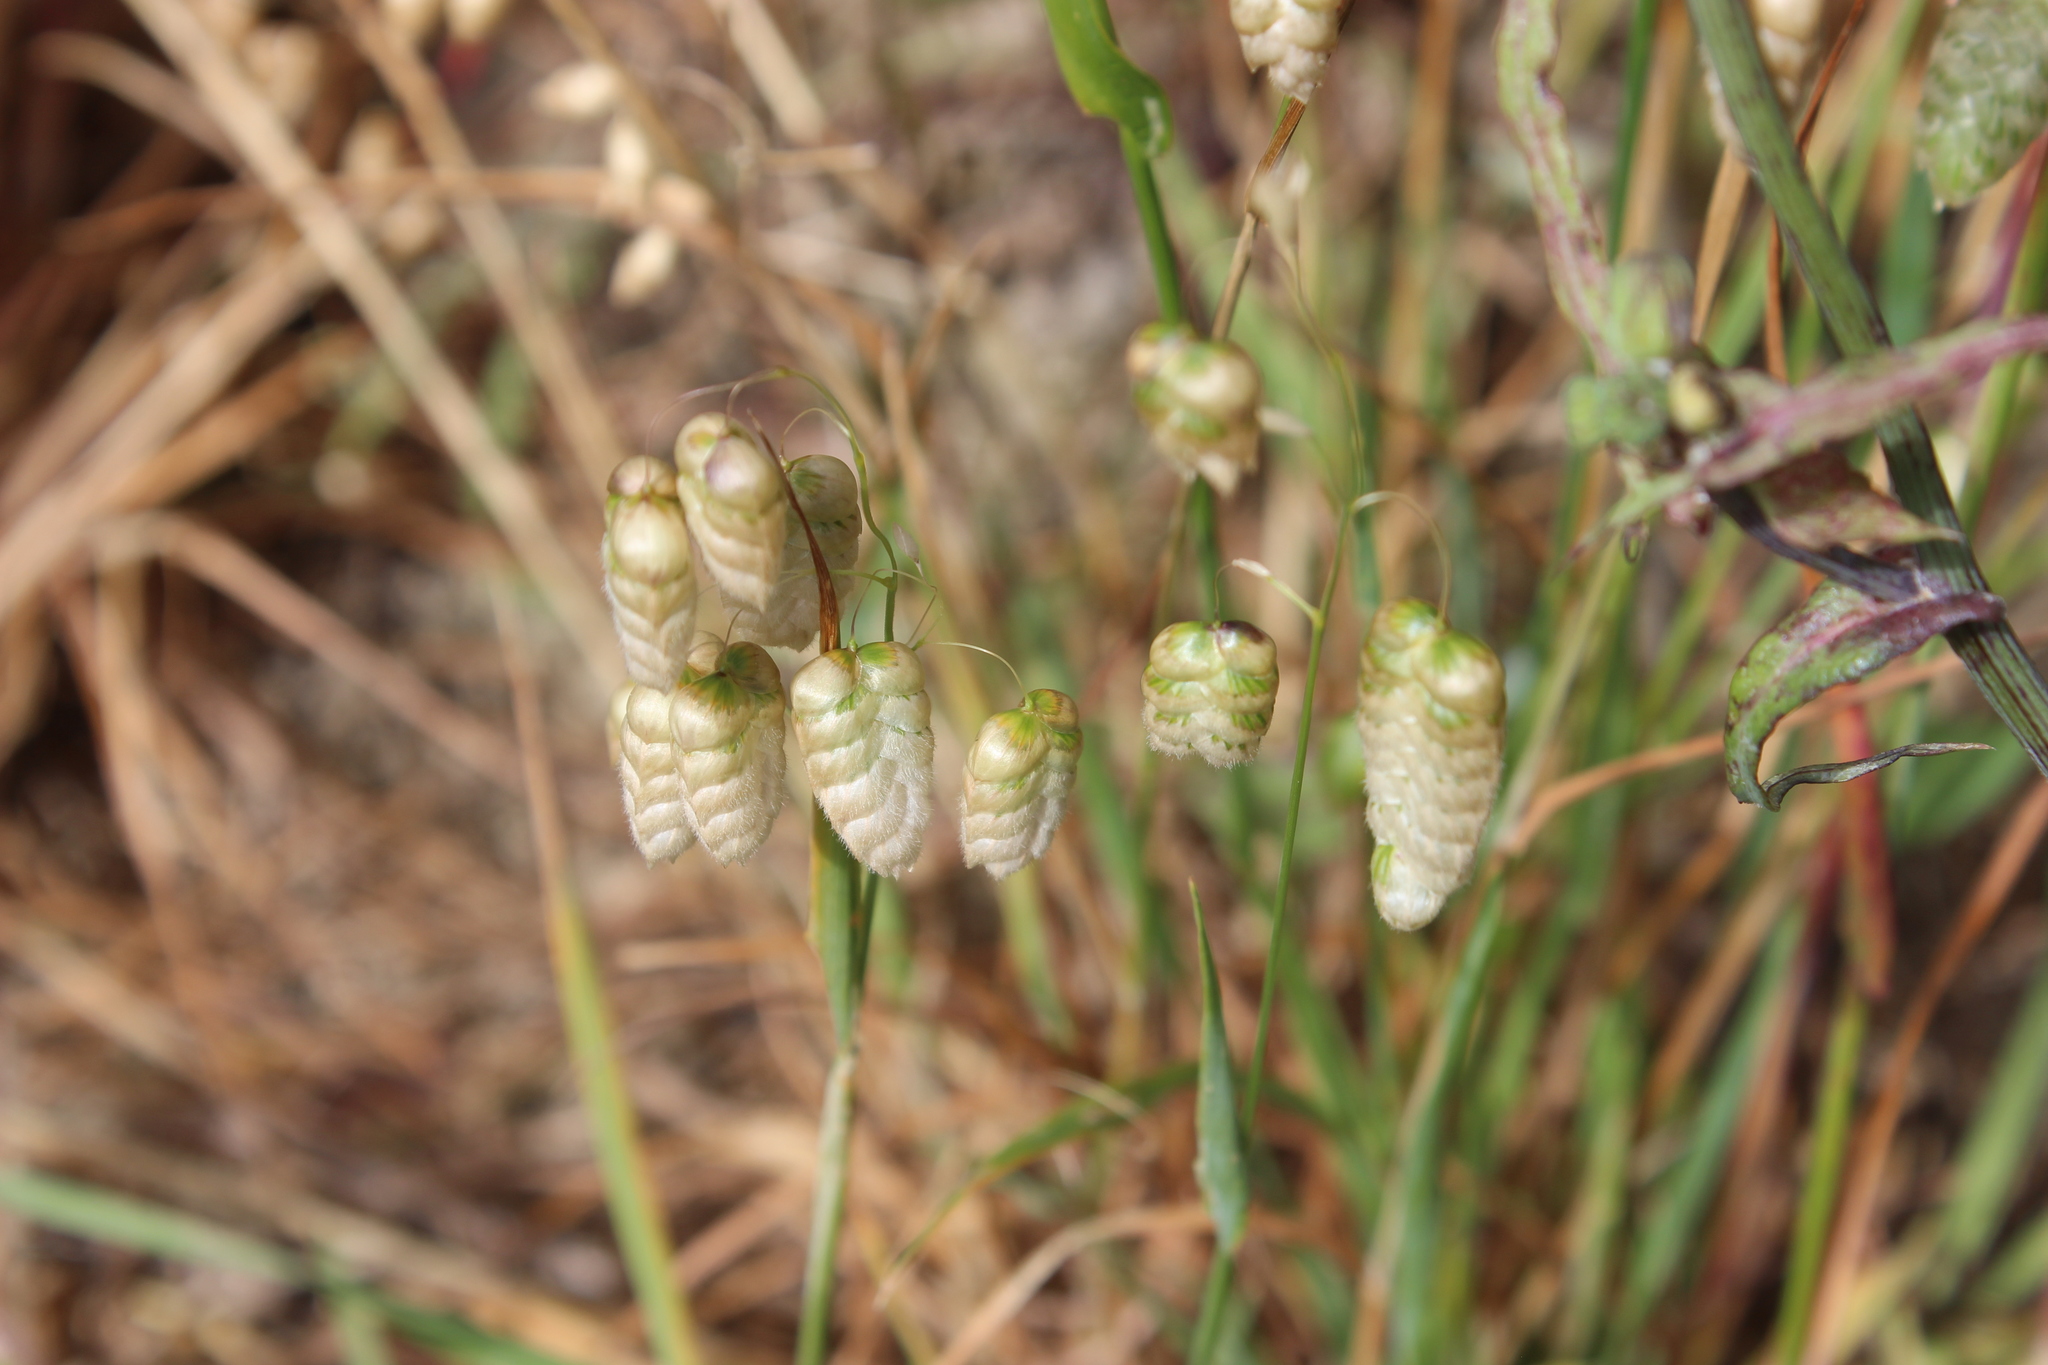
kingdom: Plantae
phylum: Tracheophyta
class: Liliopsida
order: Poales
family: Poaceae
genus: Briza
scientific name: Briza maxima
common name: Big quakinggrass
